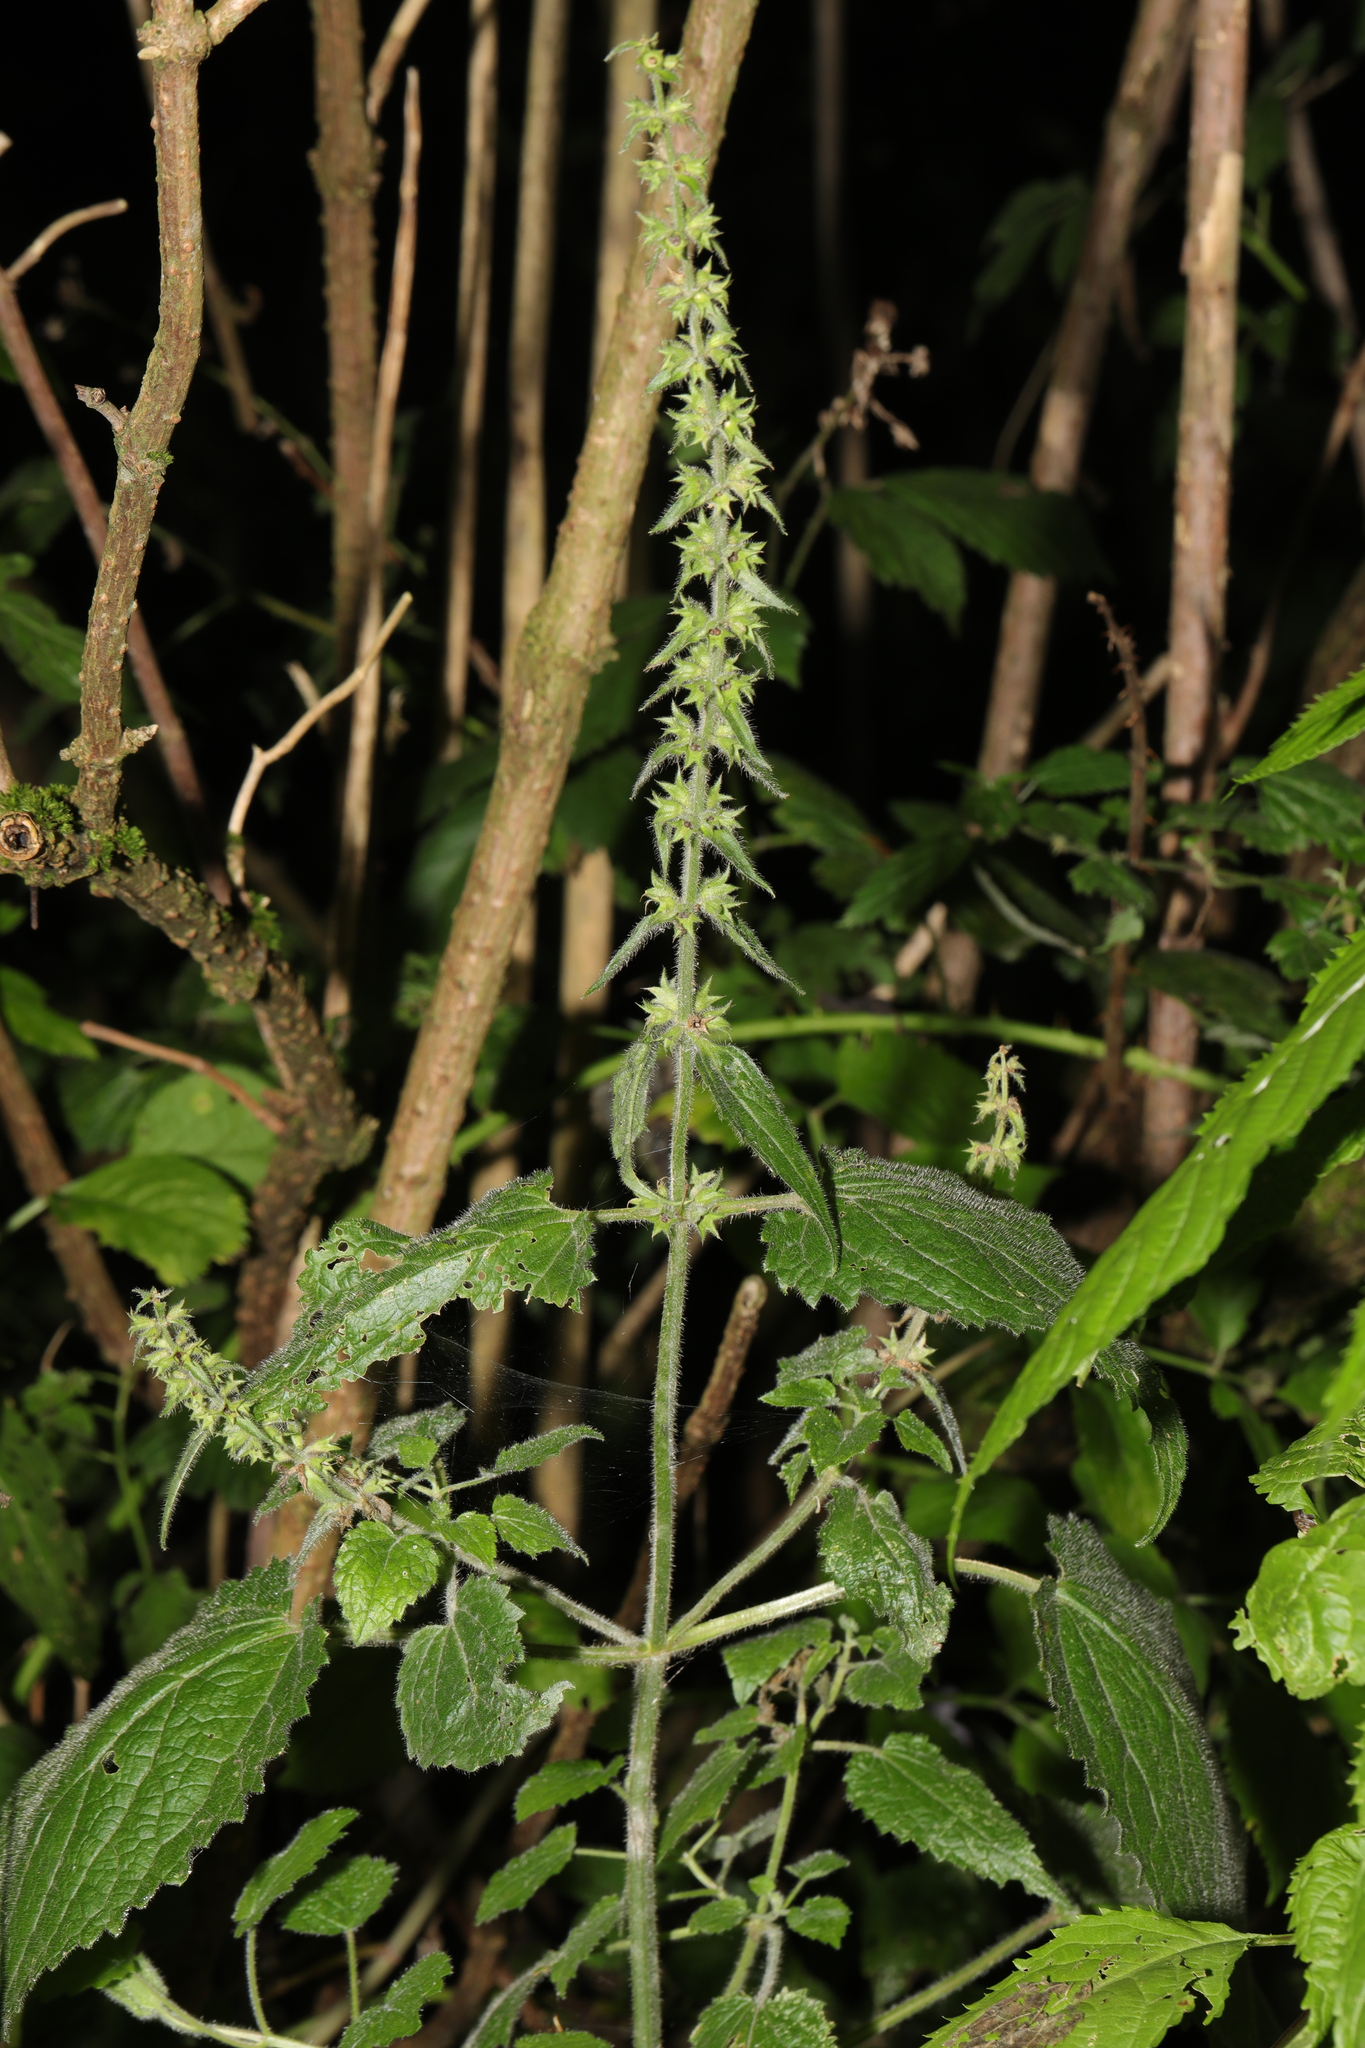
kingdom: Plantae
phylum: Tracheophyta
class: Magnoliopsida
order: Lamiales
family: Lamiaceae
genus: Stachys
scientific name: Stachys sylvatica
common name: Hedge woundwort
